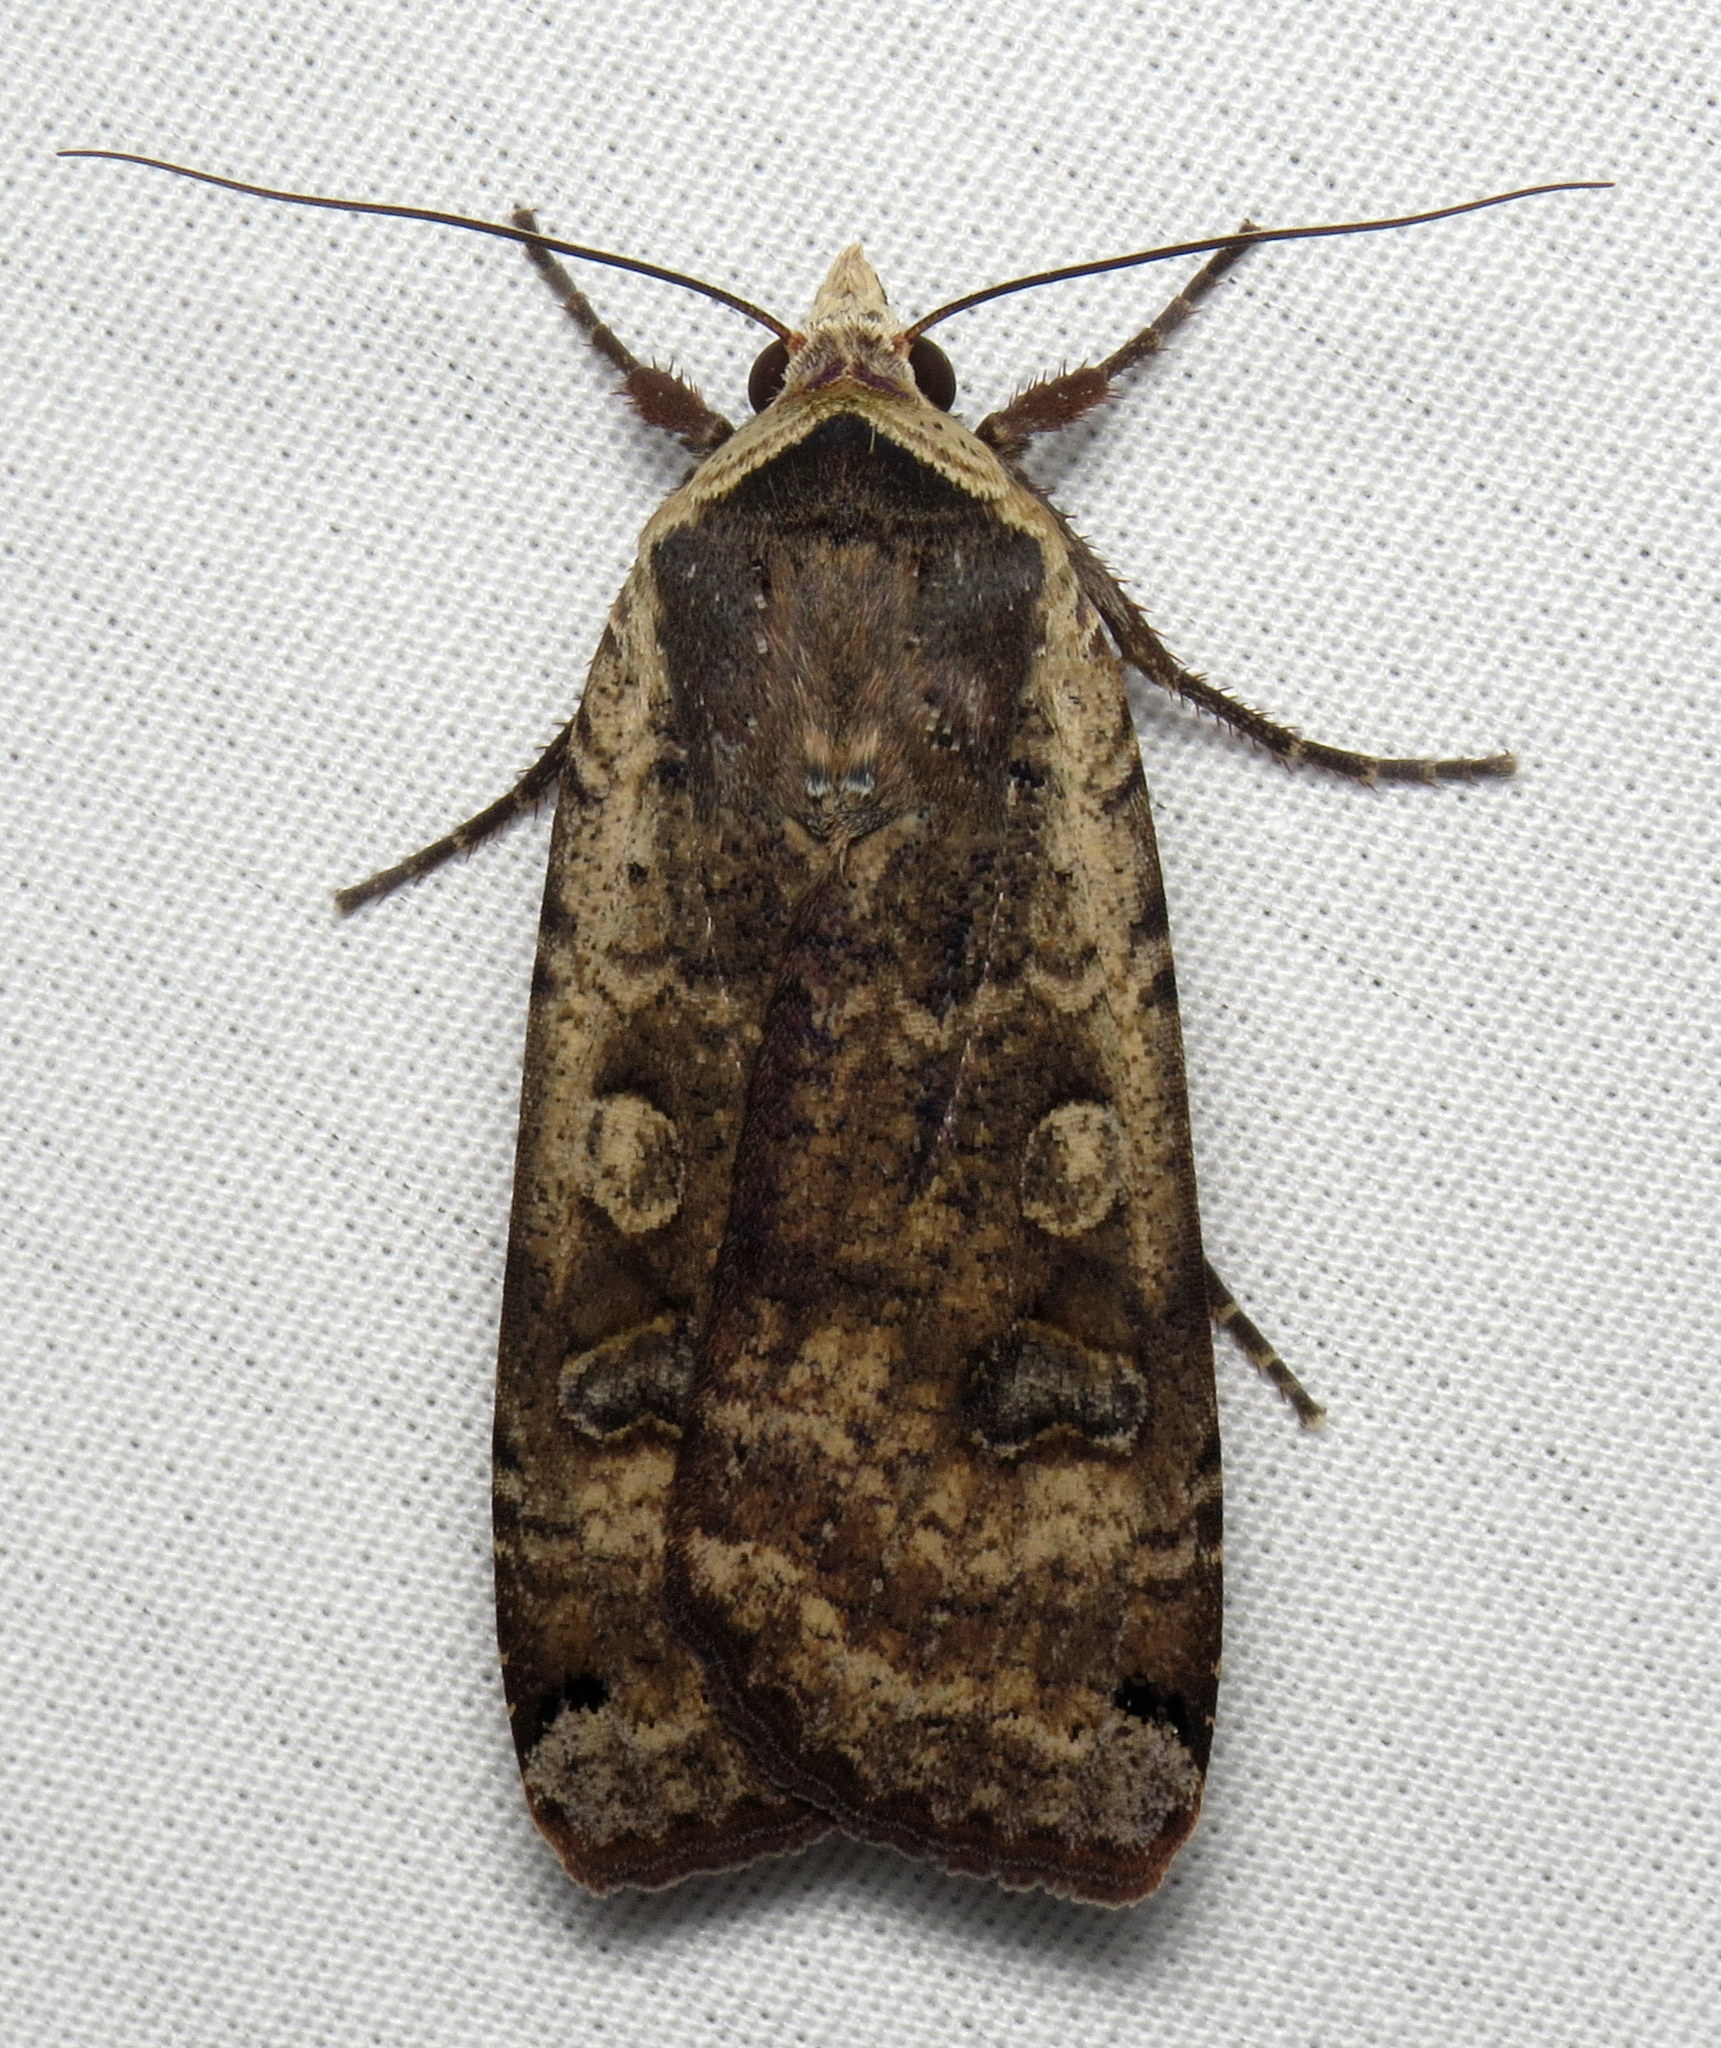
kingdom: Animalia
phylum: Arthropoda
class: Insecta
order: Lepidoptera
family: Noctuidae
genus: Noctua
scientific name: Noctua pronuba
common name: Large yellow underwing
